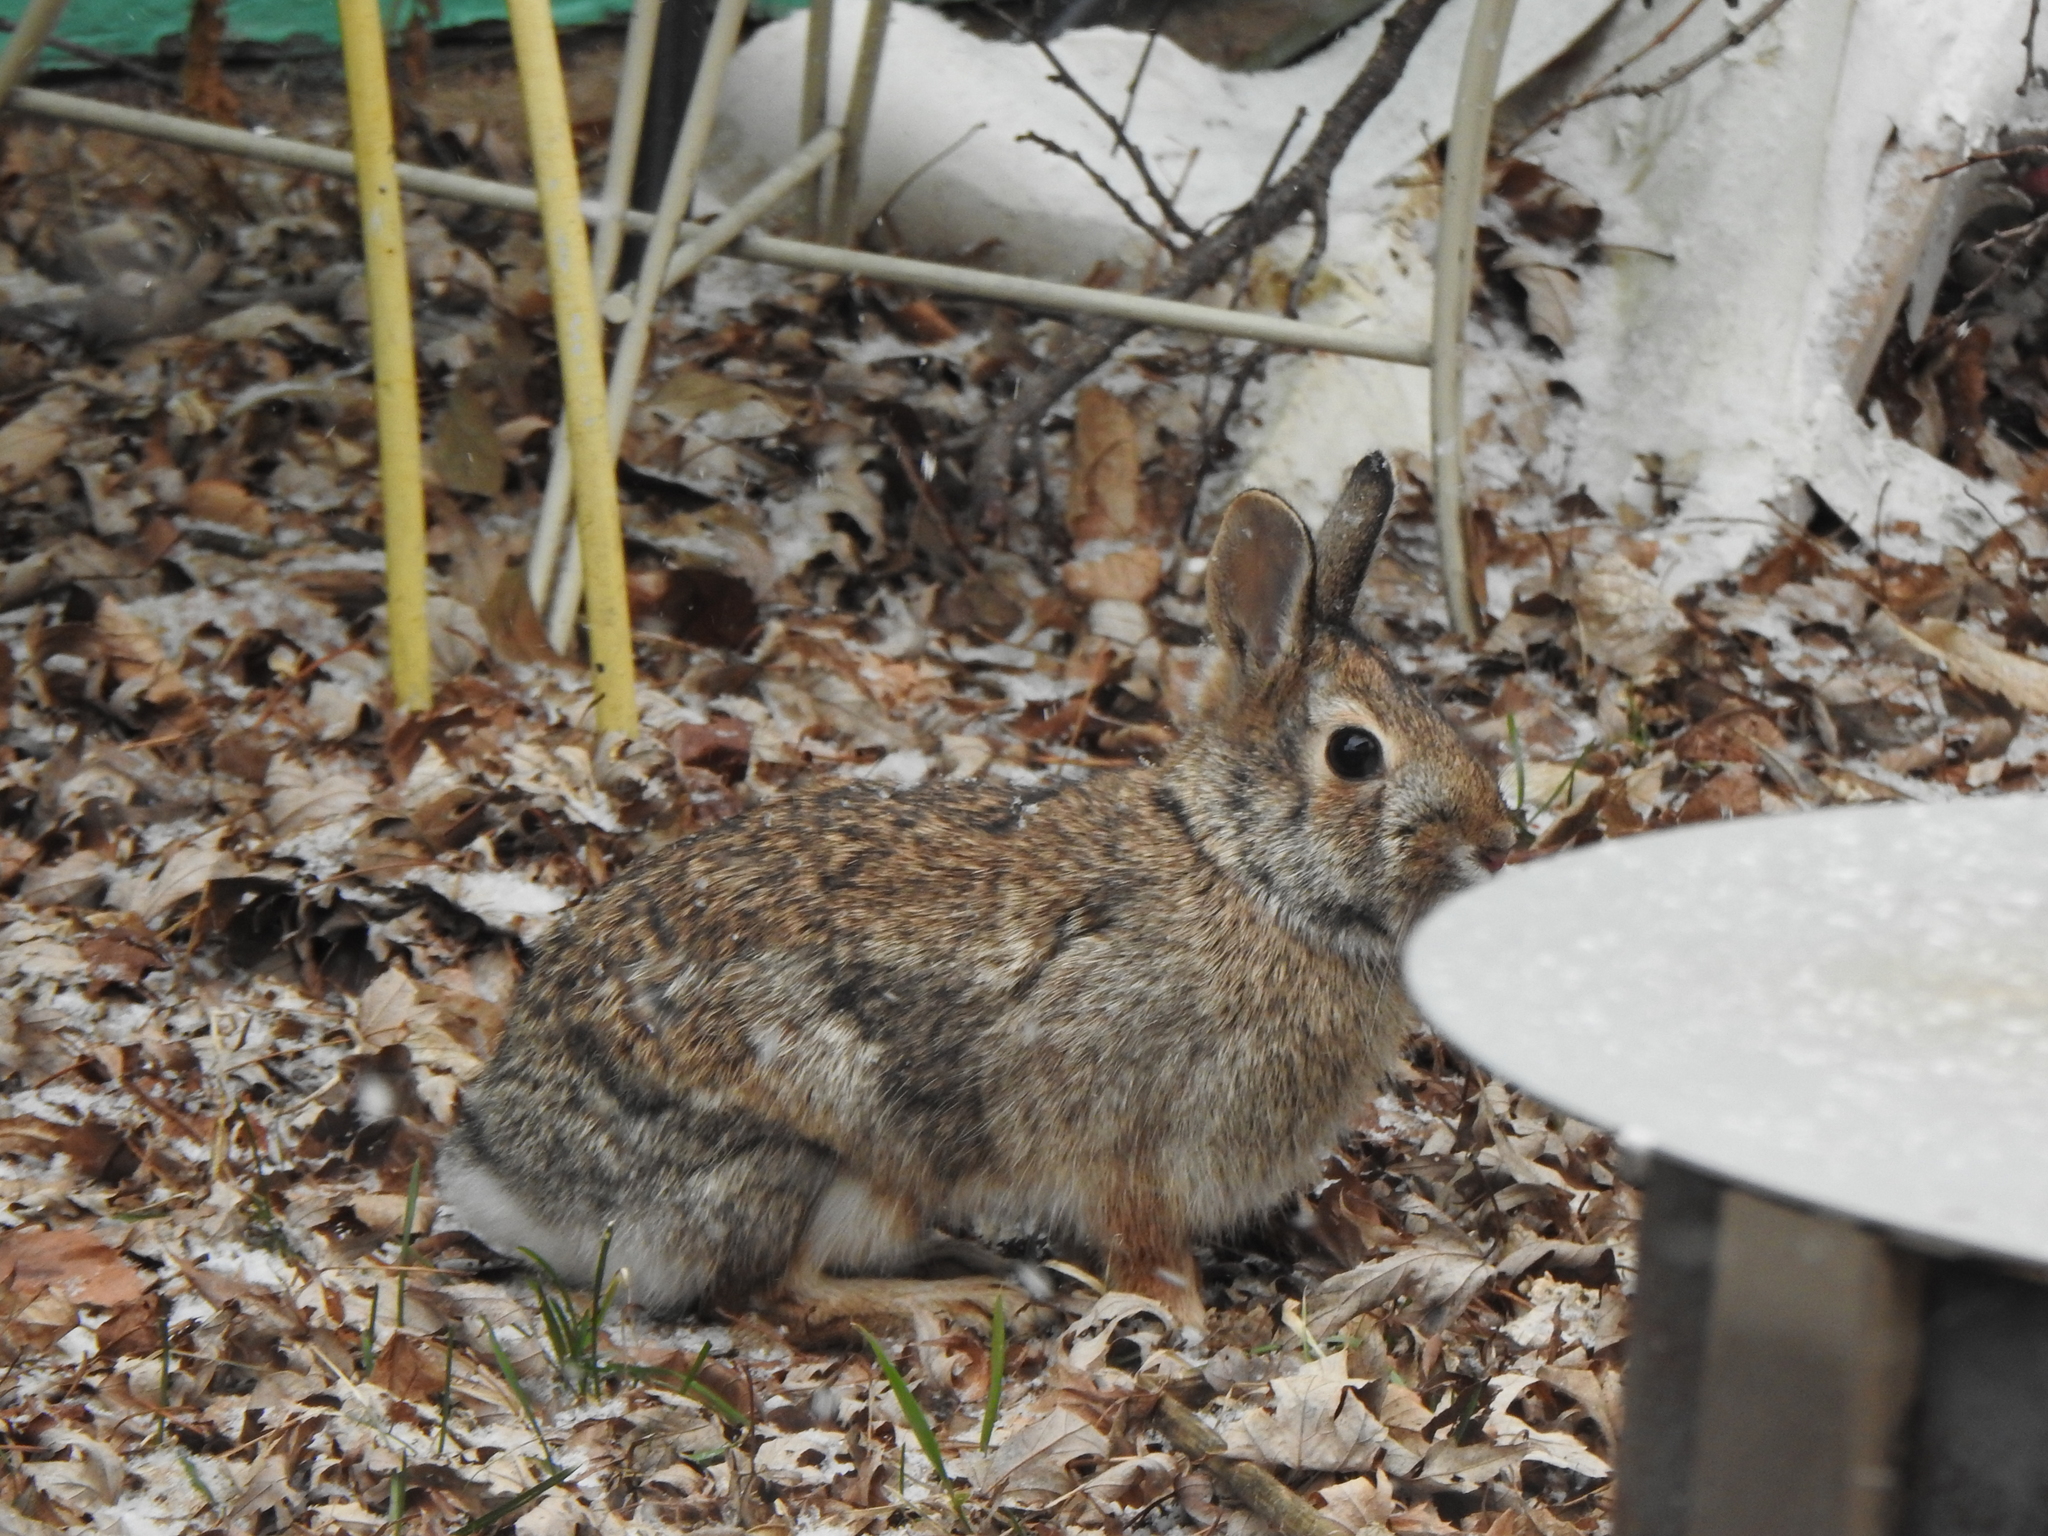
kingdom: Animalia
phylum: Chordata
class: Mammalia
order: Lagomorpha
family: Leporidae
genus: Sylvilagus
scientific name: Sylvilagus floridanus
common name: Eastern cottontail
